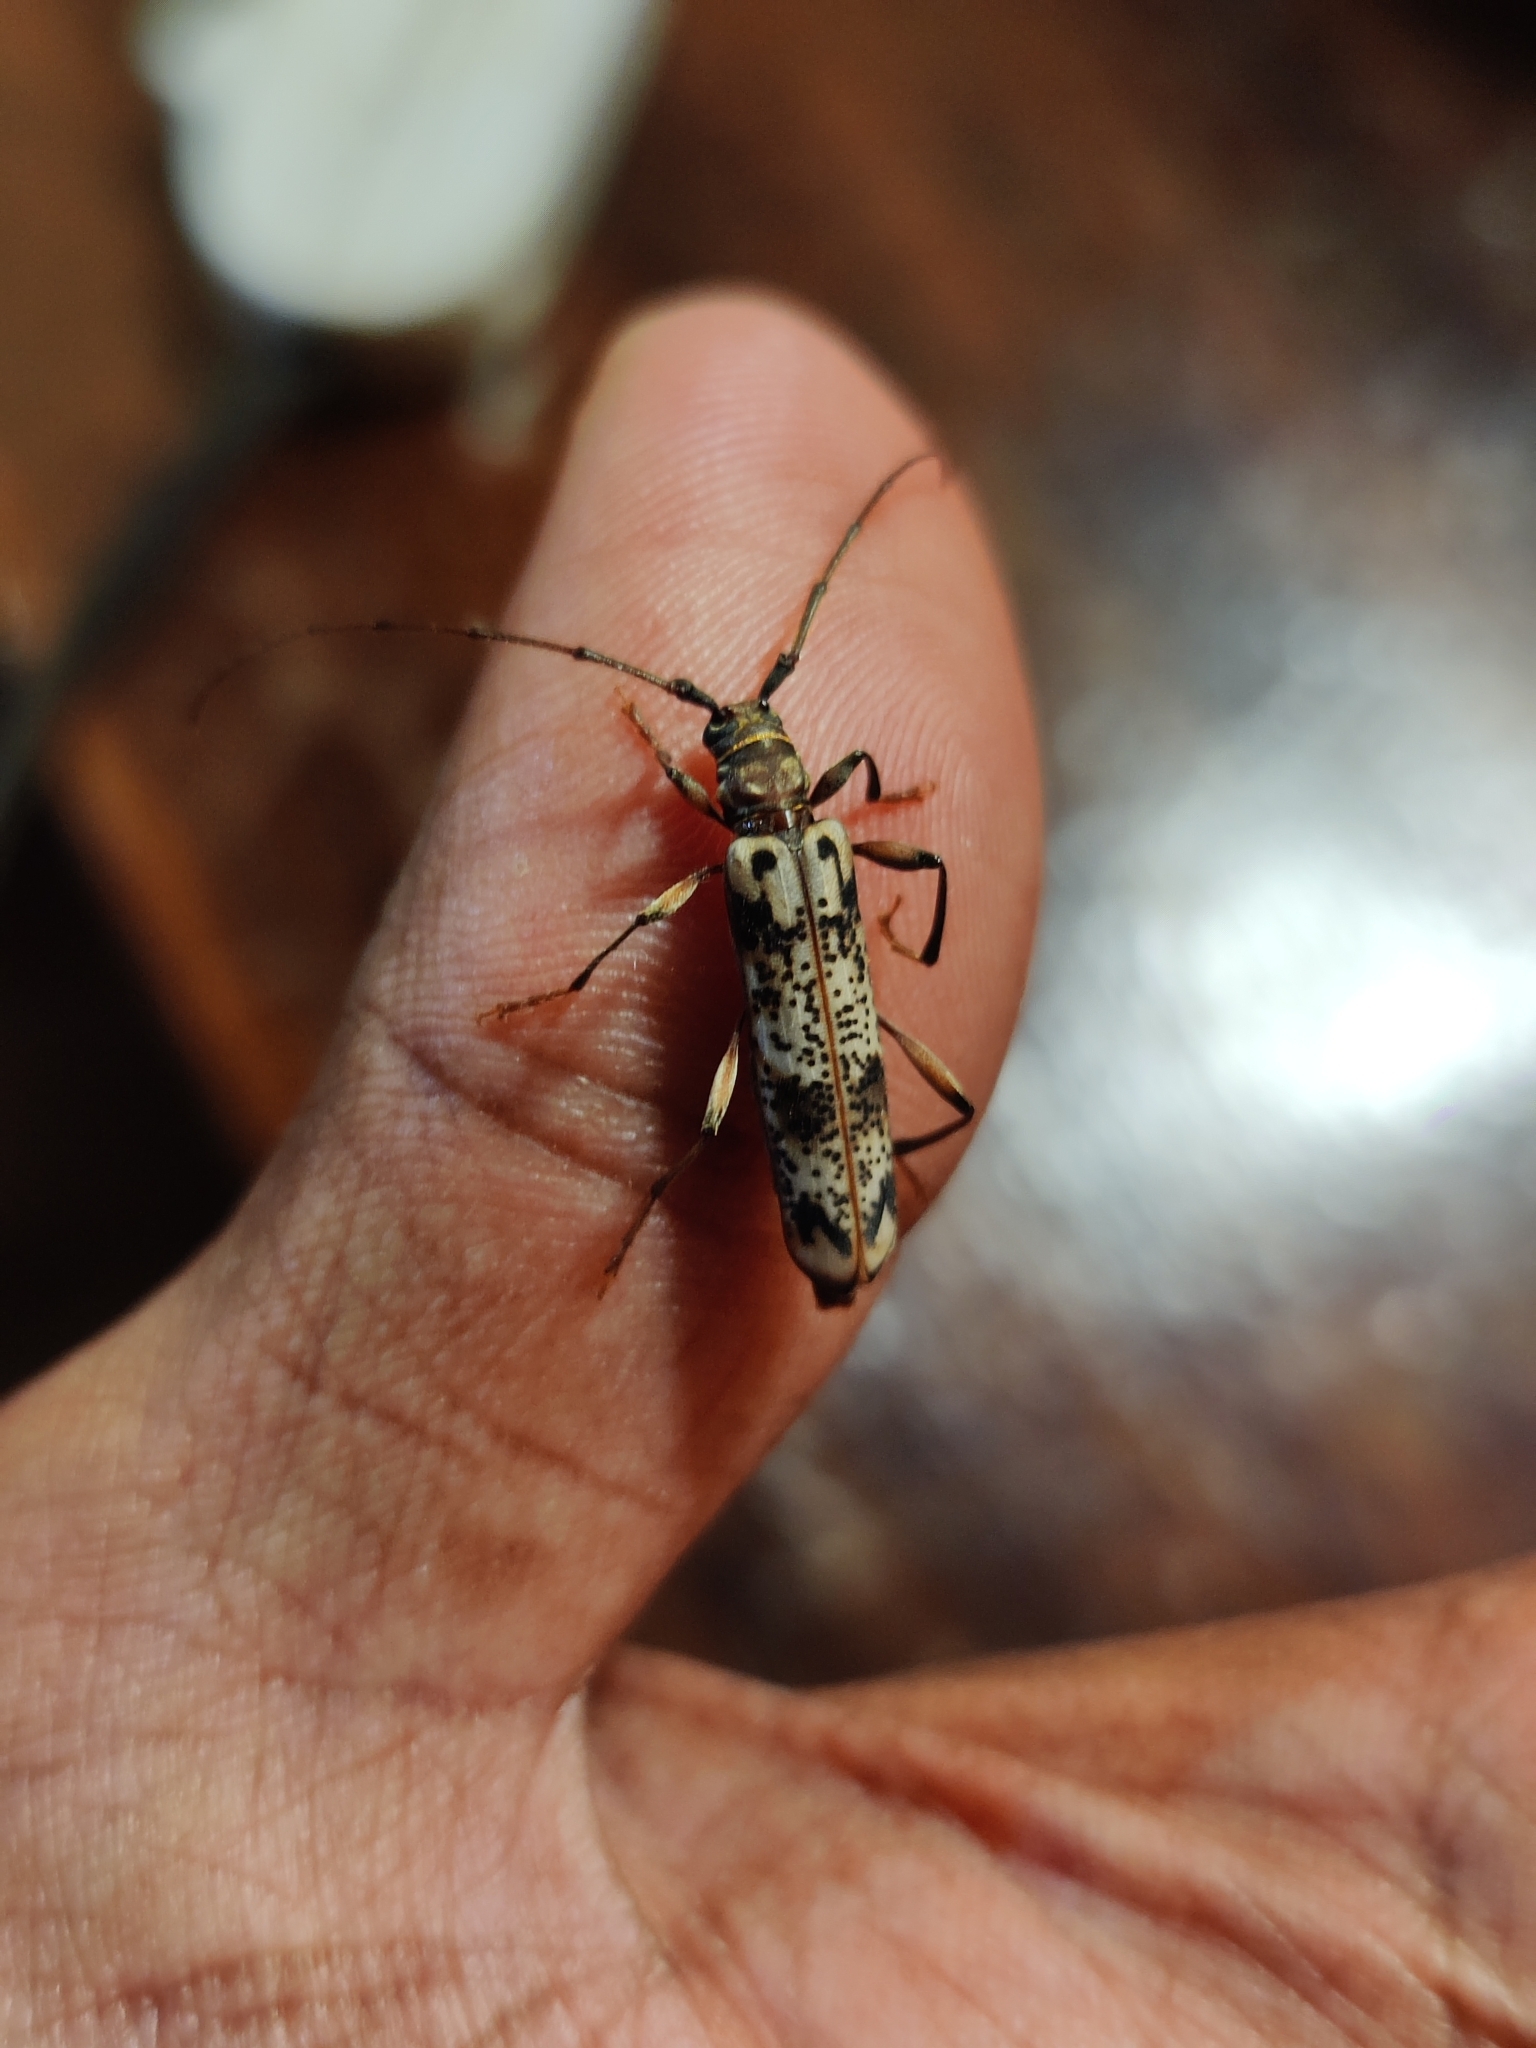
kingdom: Animalia
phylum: Arthropoda
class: Insecta
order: Coleoptera
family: Cerambycidae
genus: Xystrocera
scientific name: Xystrocera ansorgei
